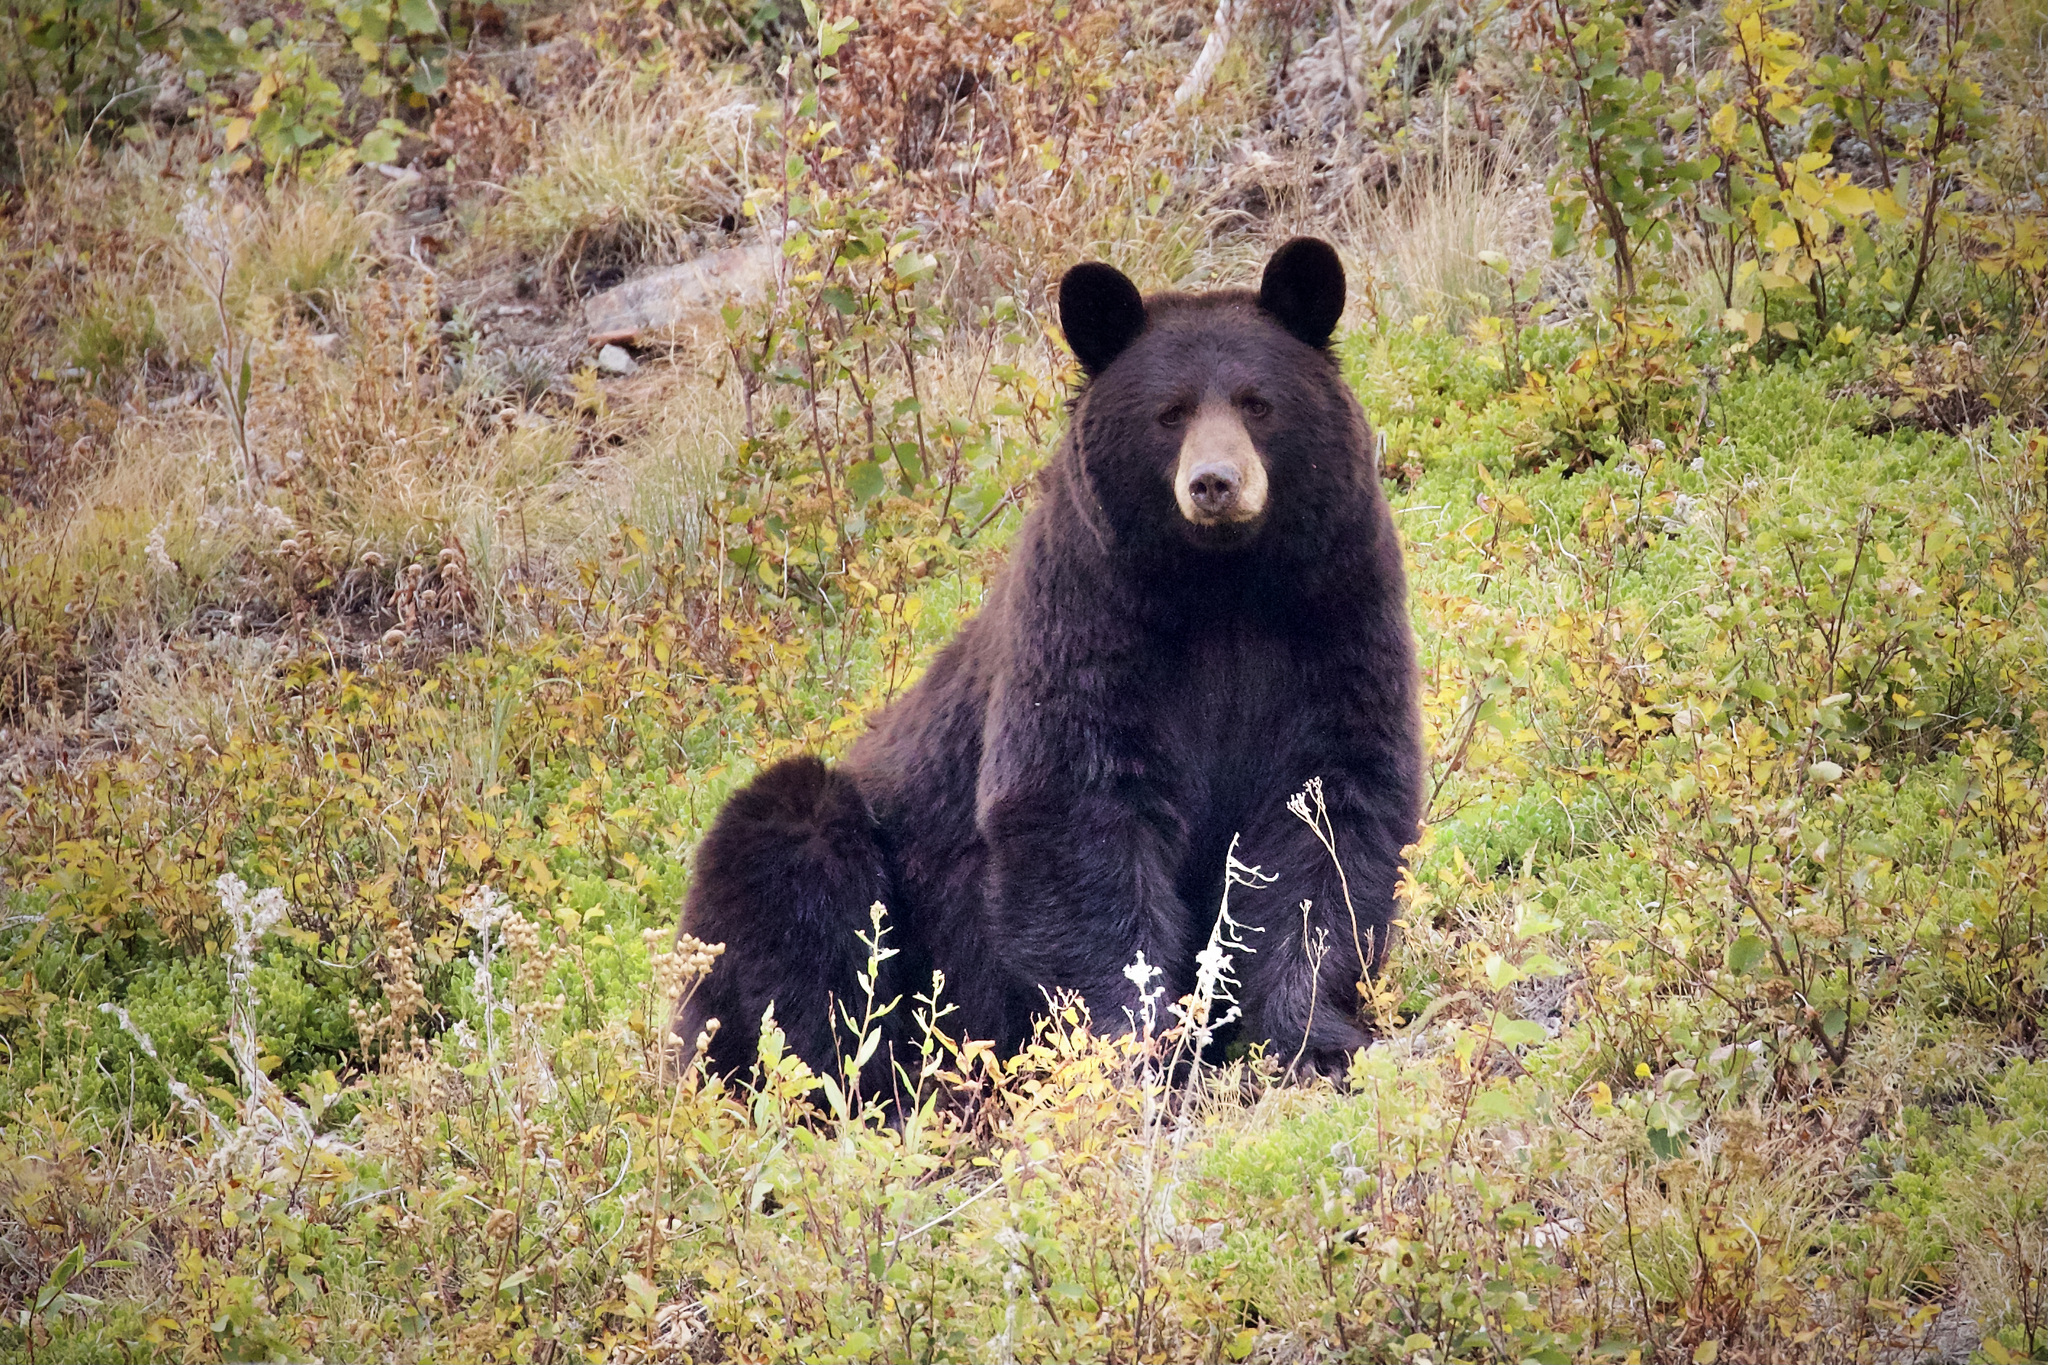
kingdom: Animalia
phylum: Chordata
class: Mammalia
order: Carnivora
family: Ursidae
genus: Ursus
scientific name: Ursus americanus
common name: American black bear
